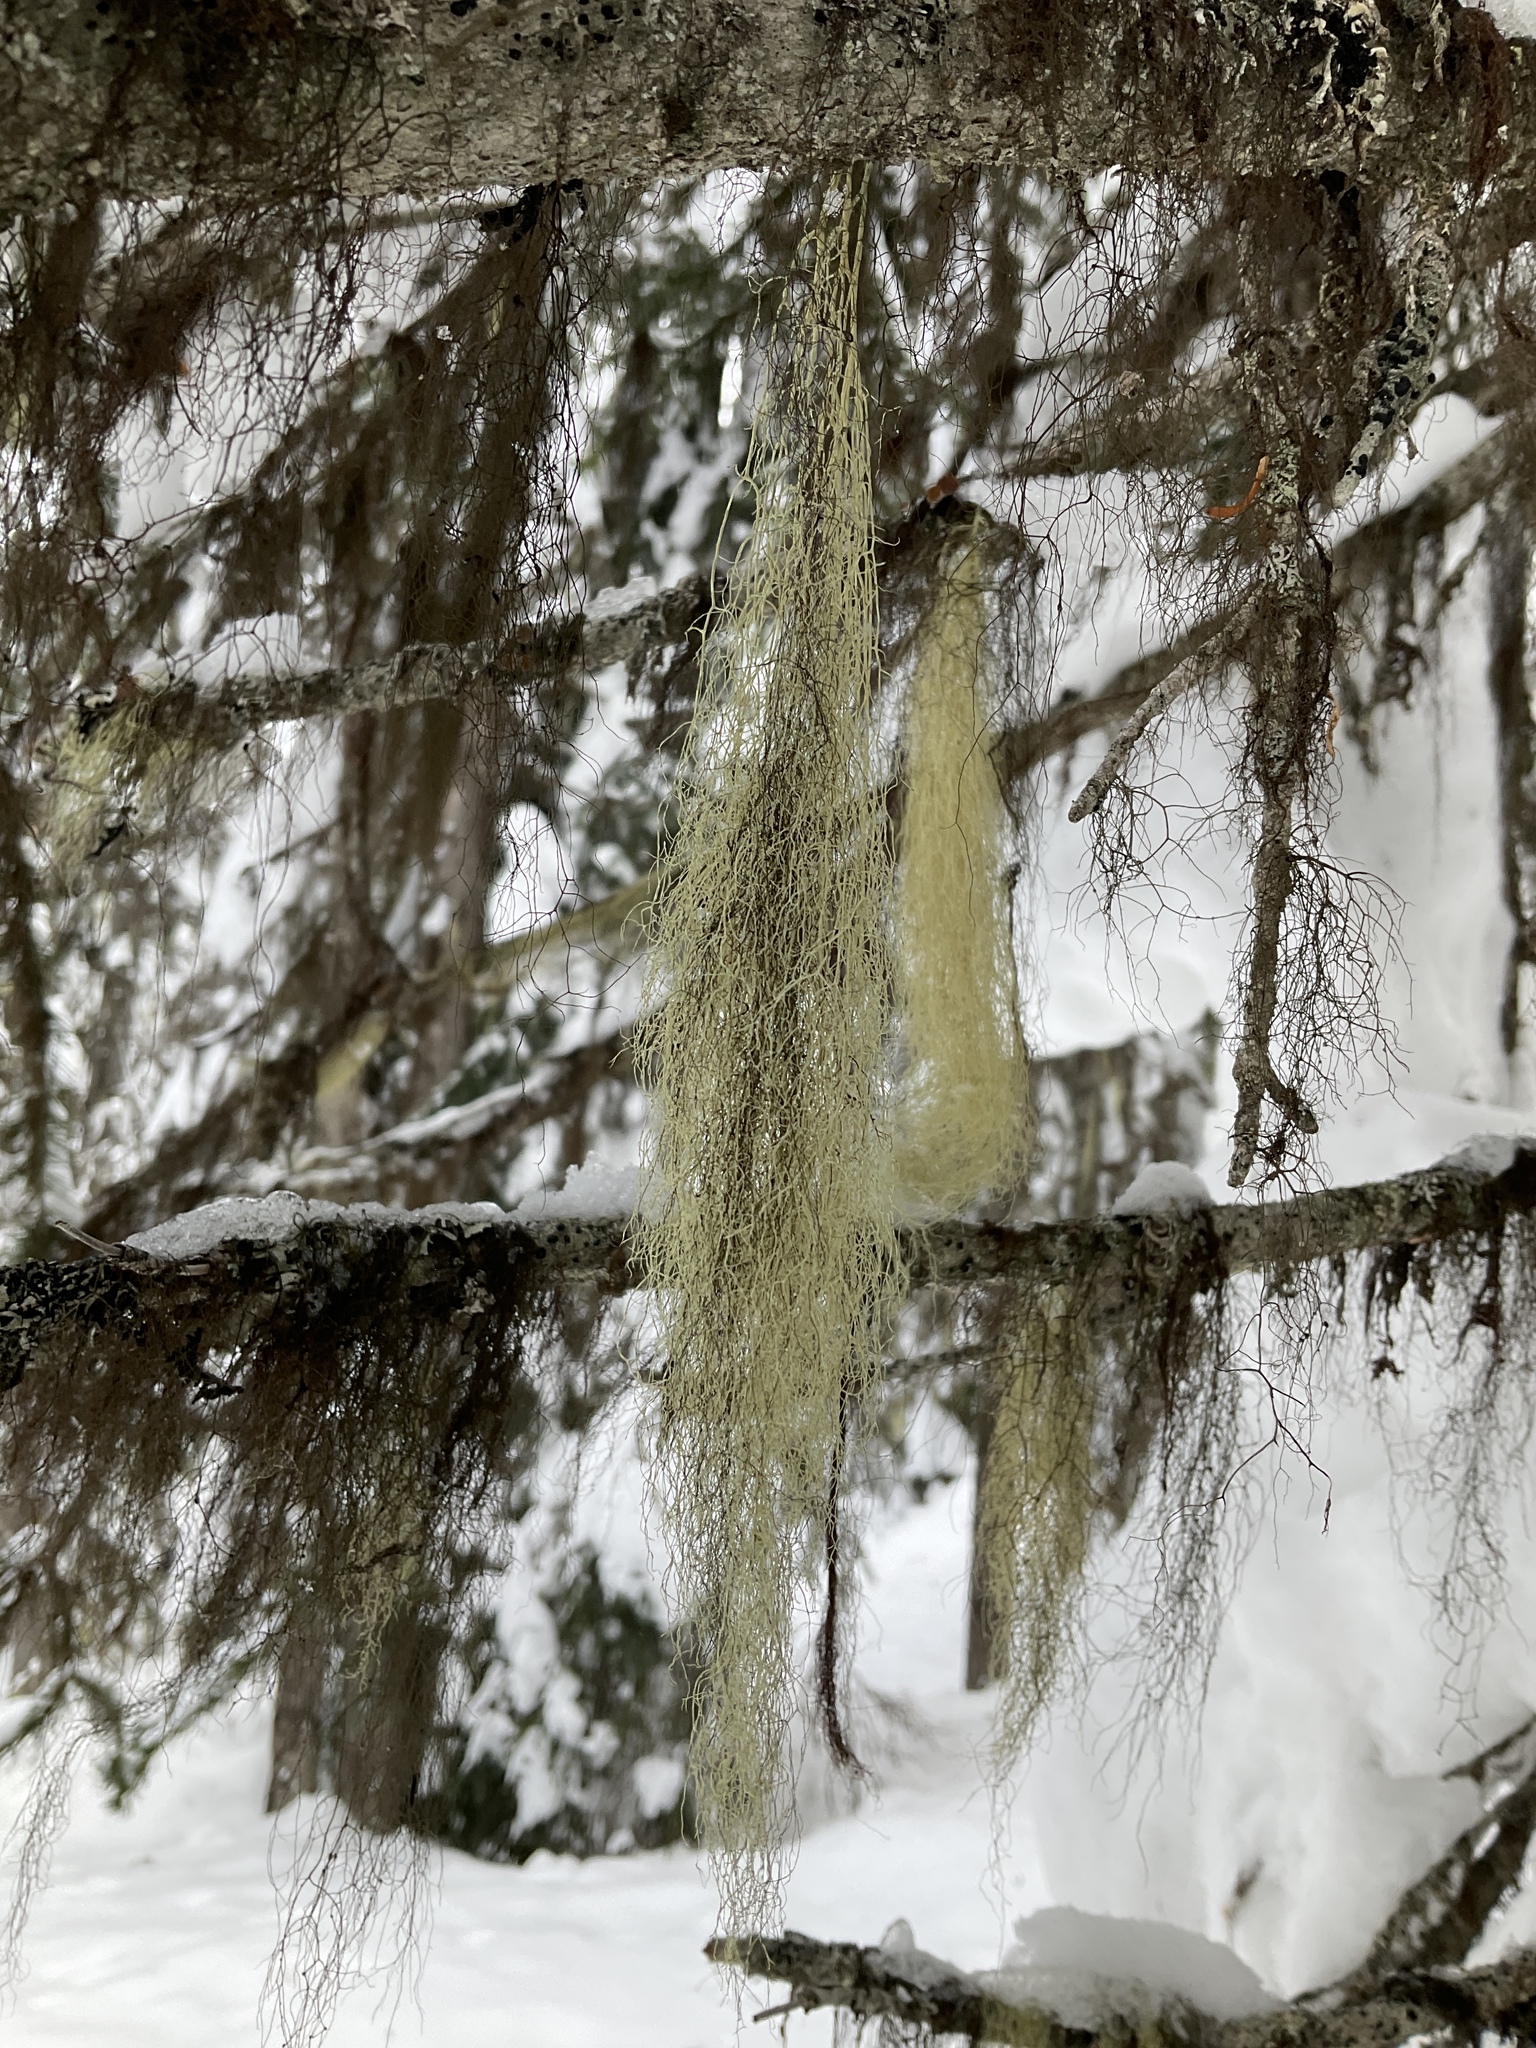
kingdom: Fungi
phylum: Ascomycota
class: Lecanoromycetes
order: Lecanorales
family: Parmeliaceae
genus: Alectoria
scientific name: Alectoria sarmentosa
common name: Witch's hair
